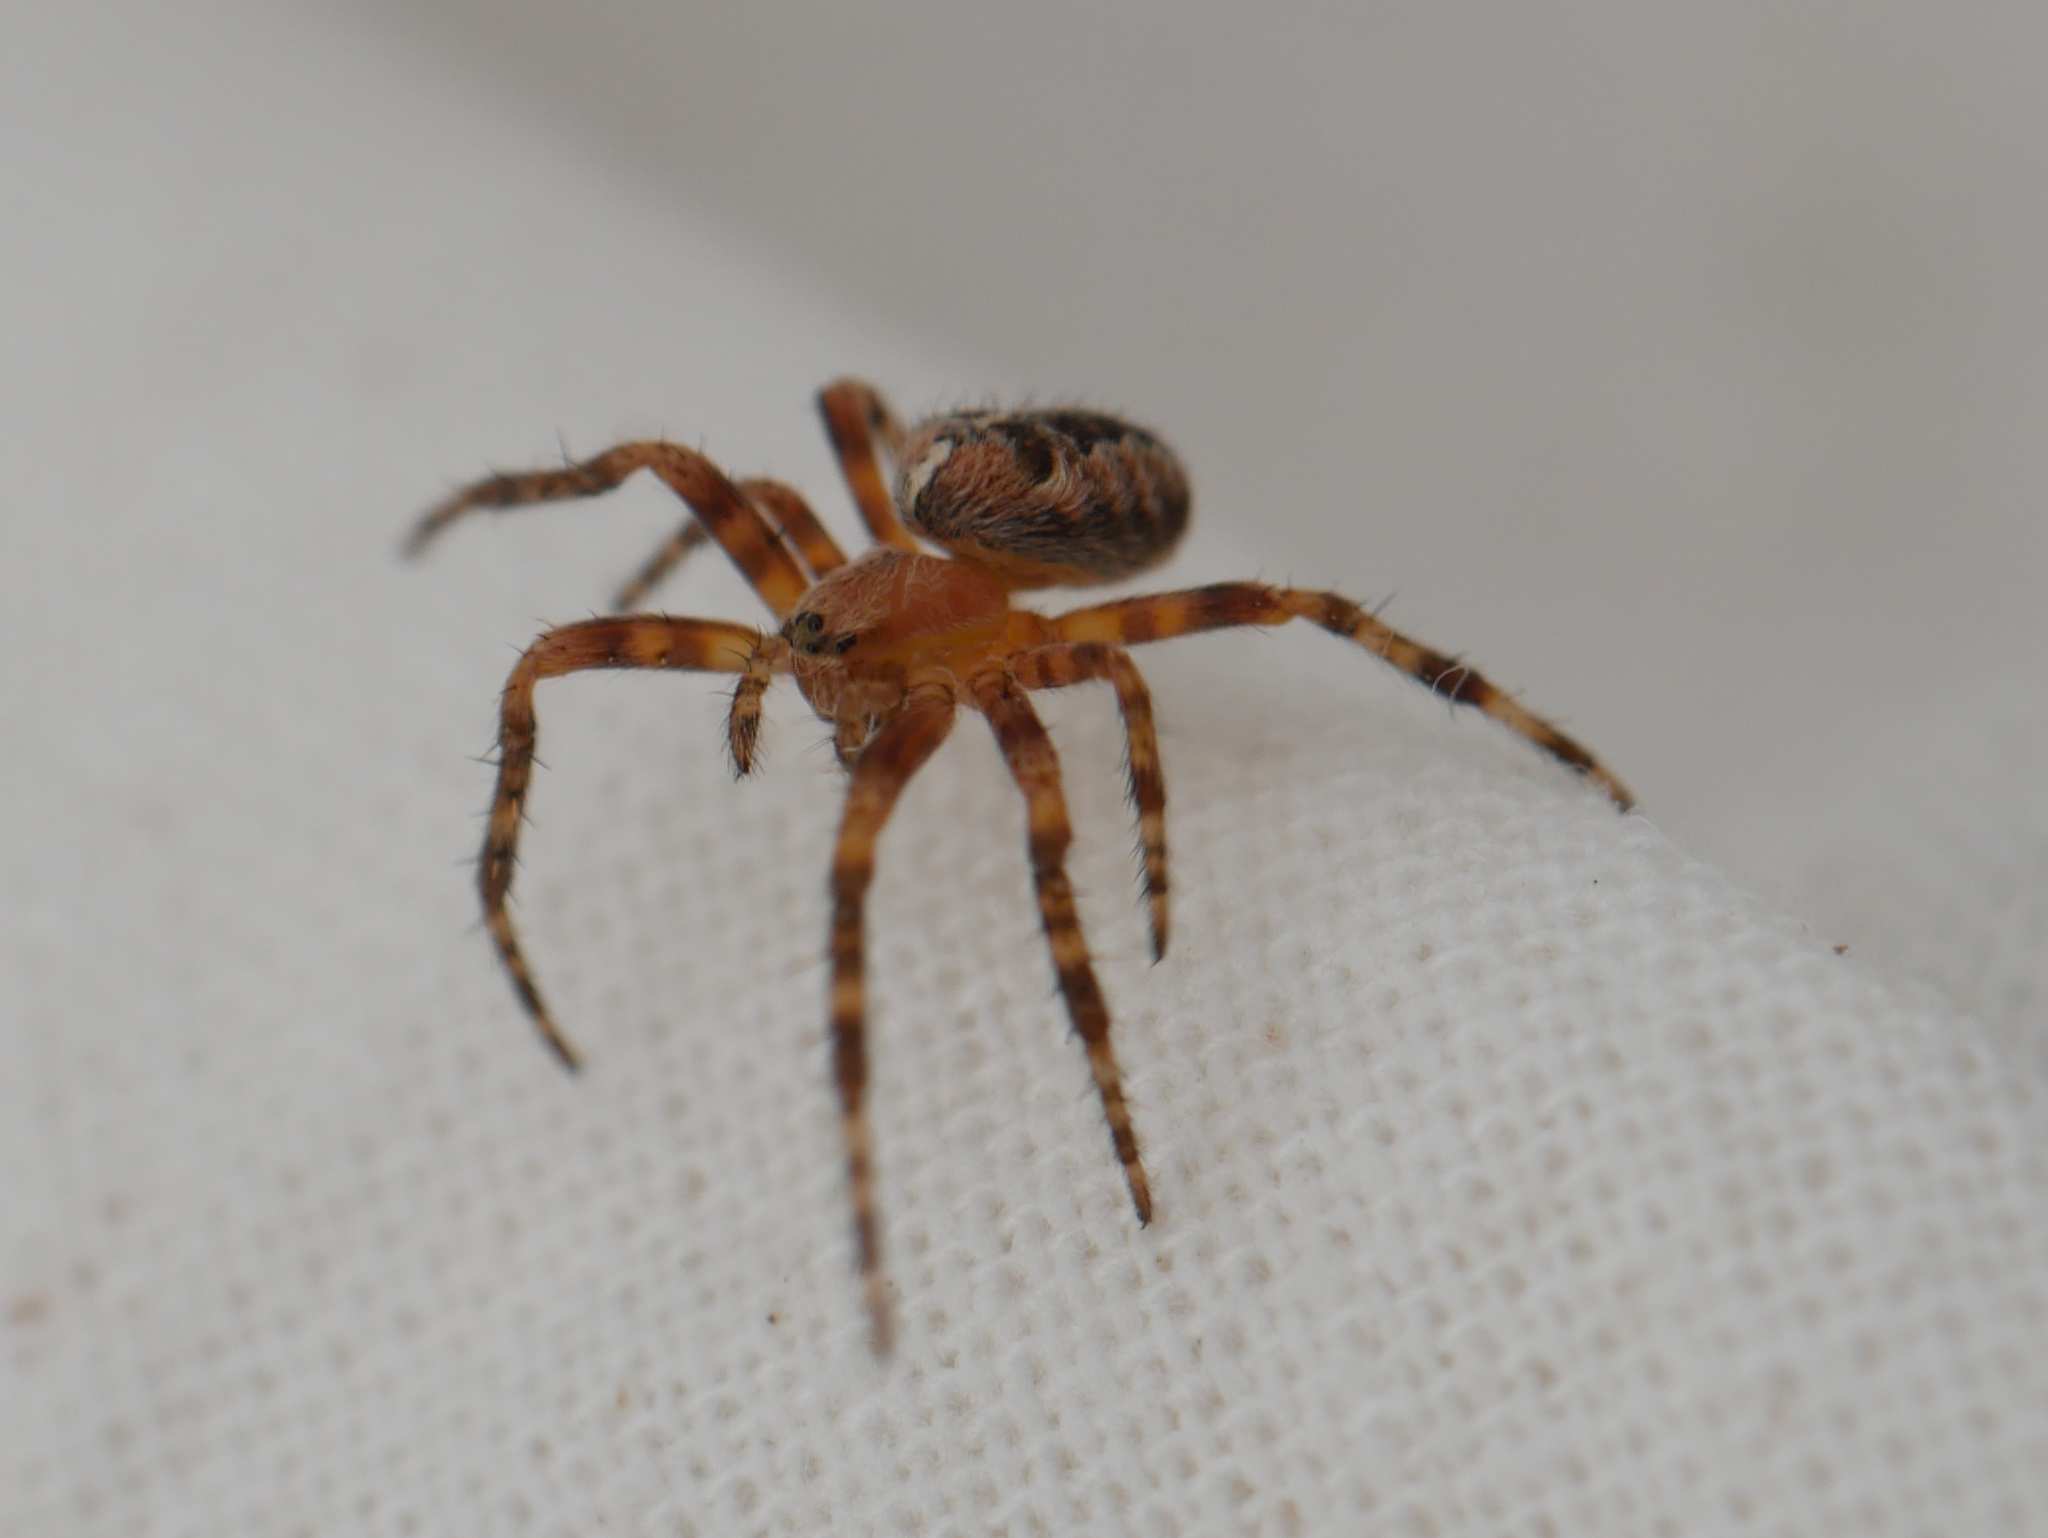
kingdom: Animalia
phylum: Arthropoda
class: Arachnida
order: Araneae
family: Araneidae
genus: Araneus
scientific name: Araneus diadematus
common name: Cross orbweaver
